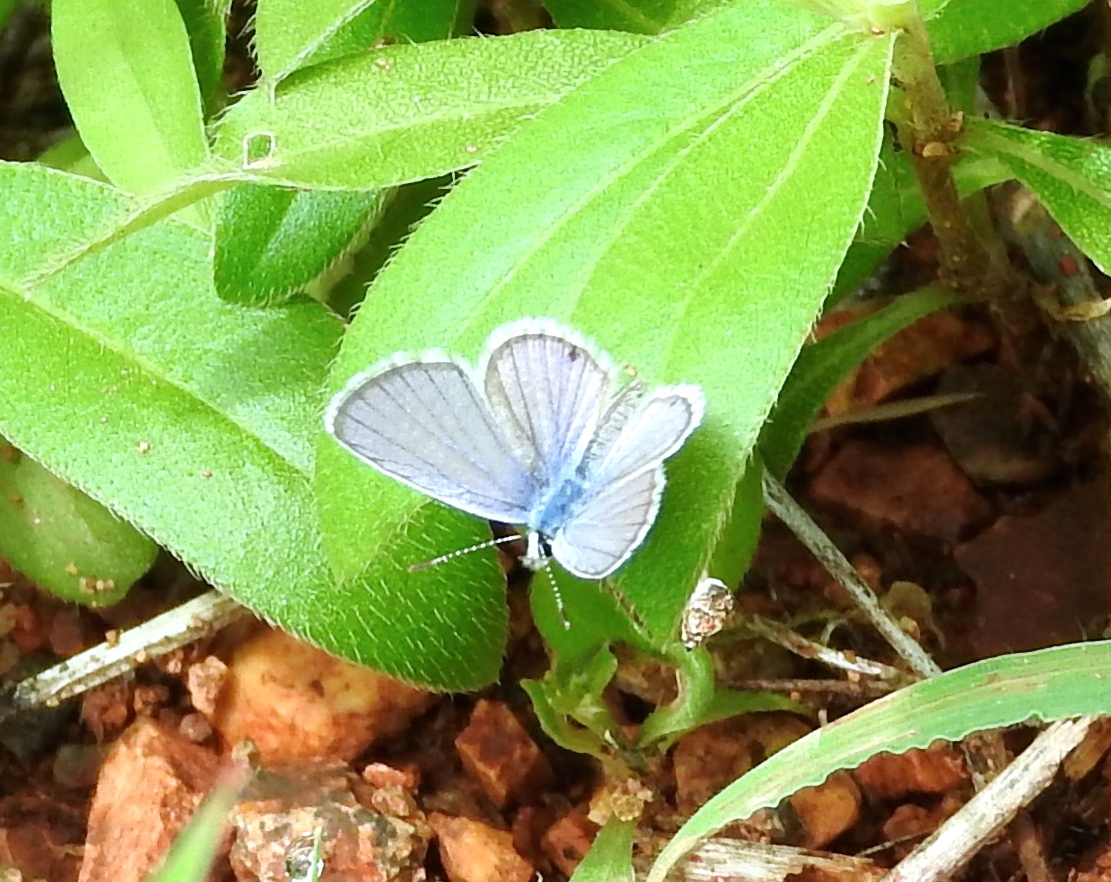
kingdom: Animalia
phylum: Arthropoda
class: Insecta
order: Lepidoptera
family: Lycaenidae
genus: Echinargus
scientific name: Echinargus isola
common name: Reakirt's blue
